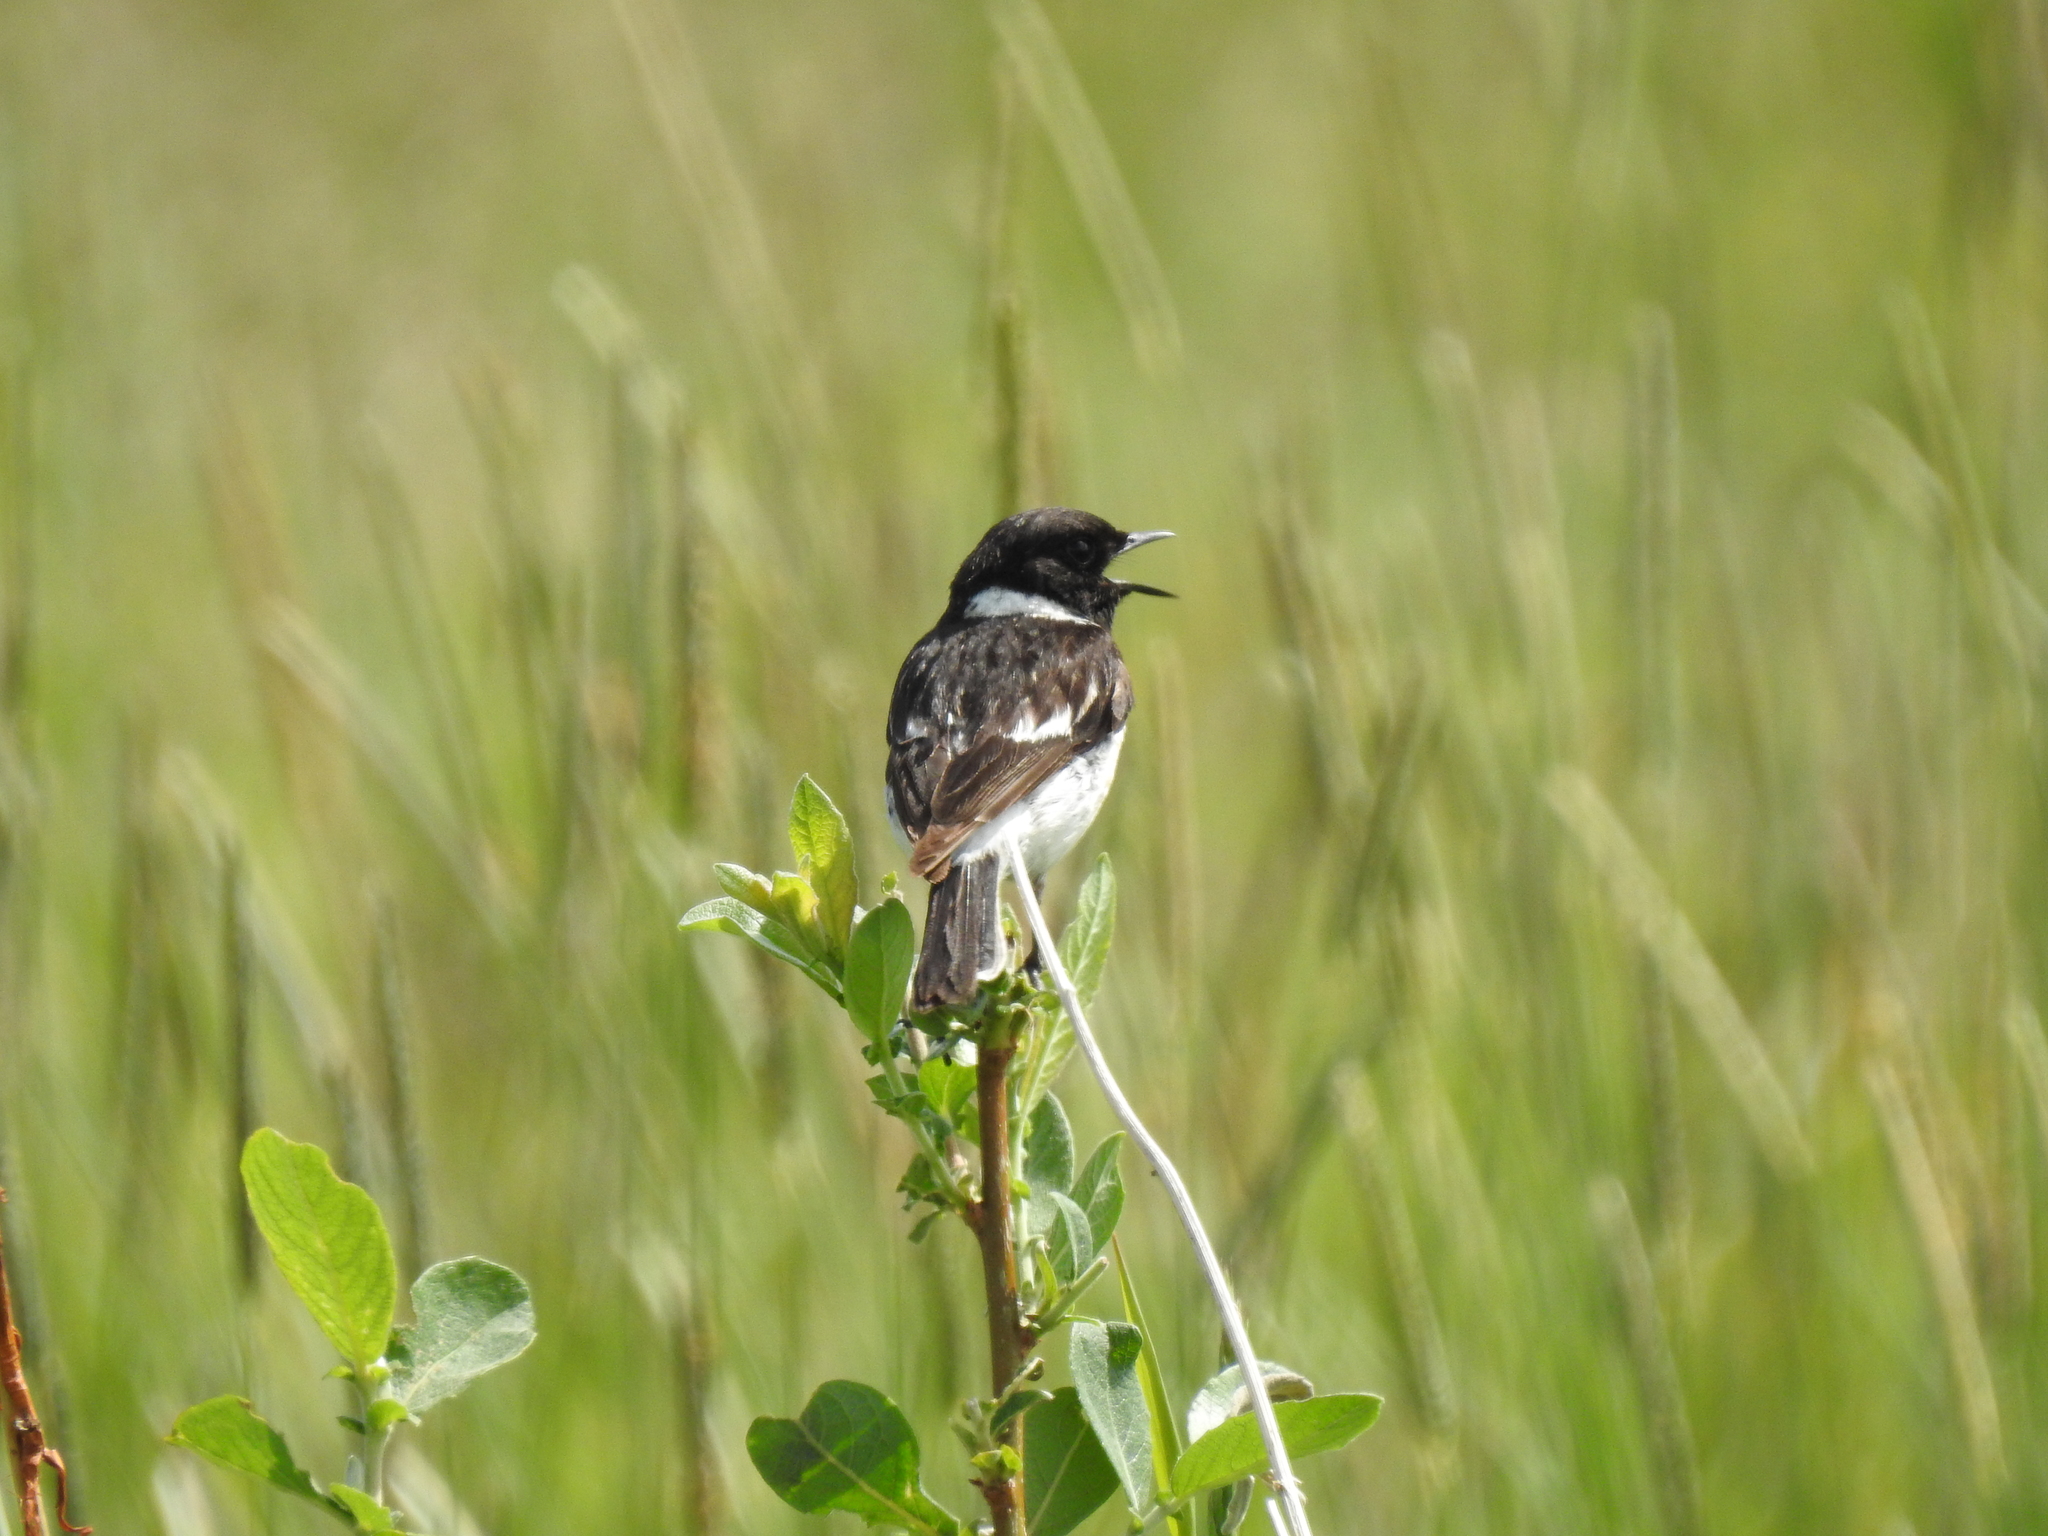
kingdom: Animalia
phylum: Chordata
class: Aves
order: Passeriformes
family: Muscicapidae
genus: Saxicola
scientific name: Saxicola maurus
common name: Siberian stonechat
